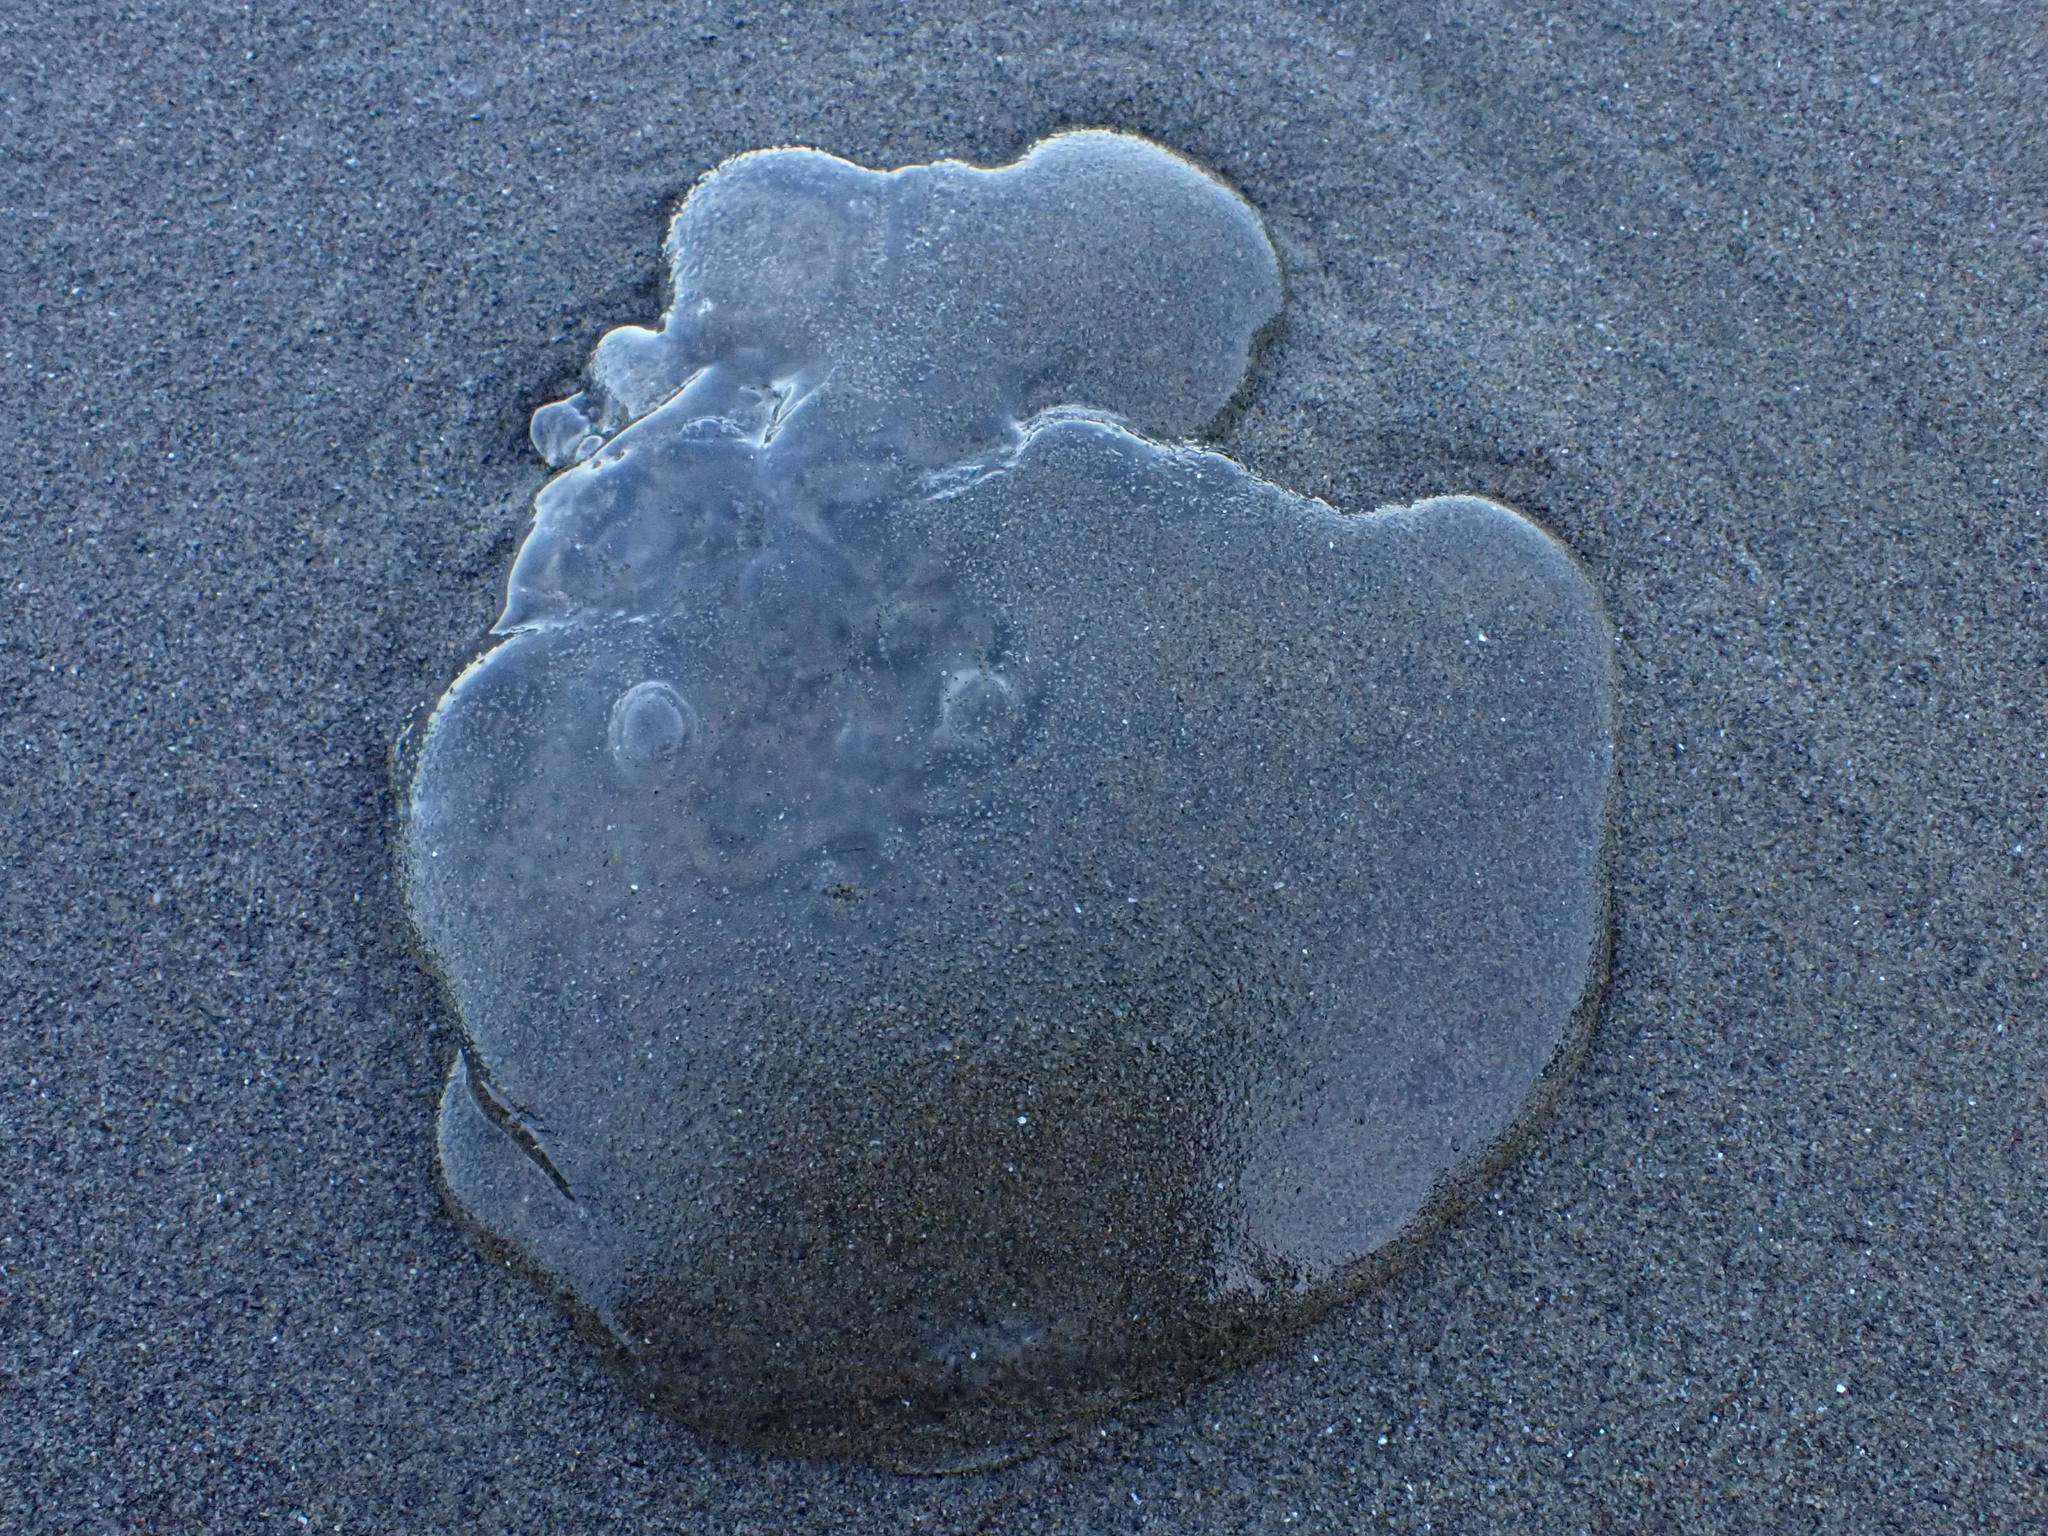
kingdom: Animalia
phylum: Cnidaria
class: Scyphozoa
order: Semaeostomeae
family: Ulmaridae
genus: Aurelia
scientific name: Aurelia
